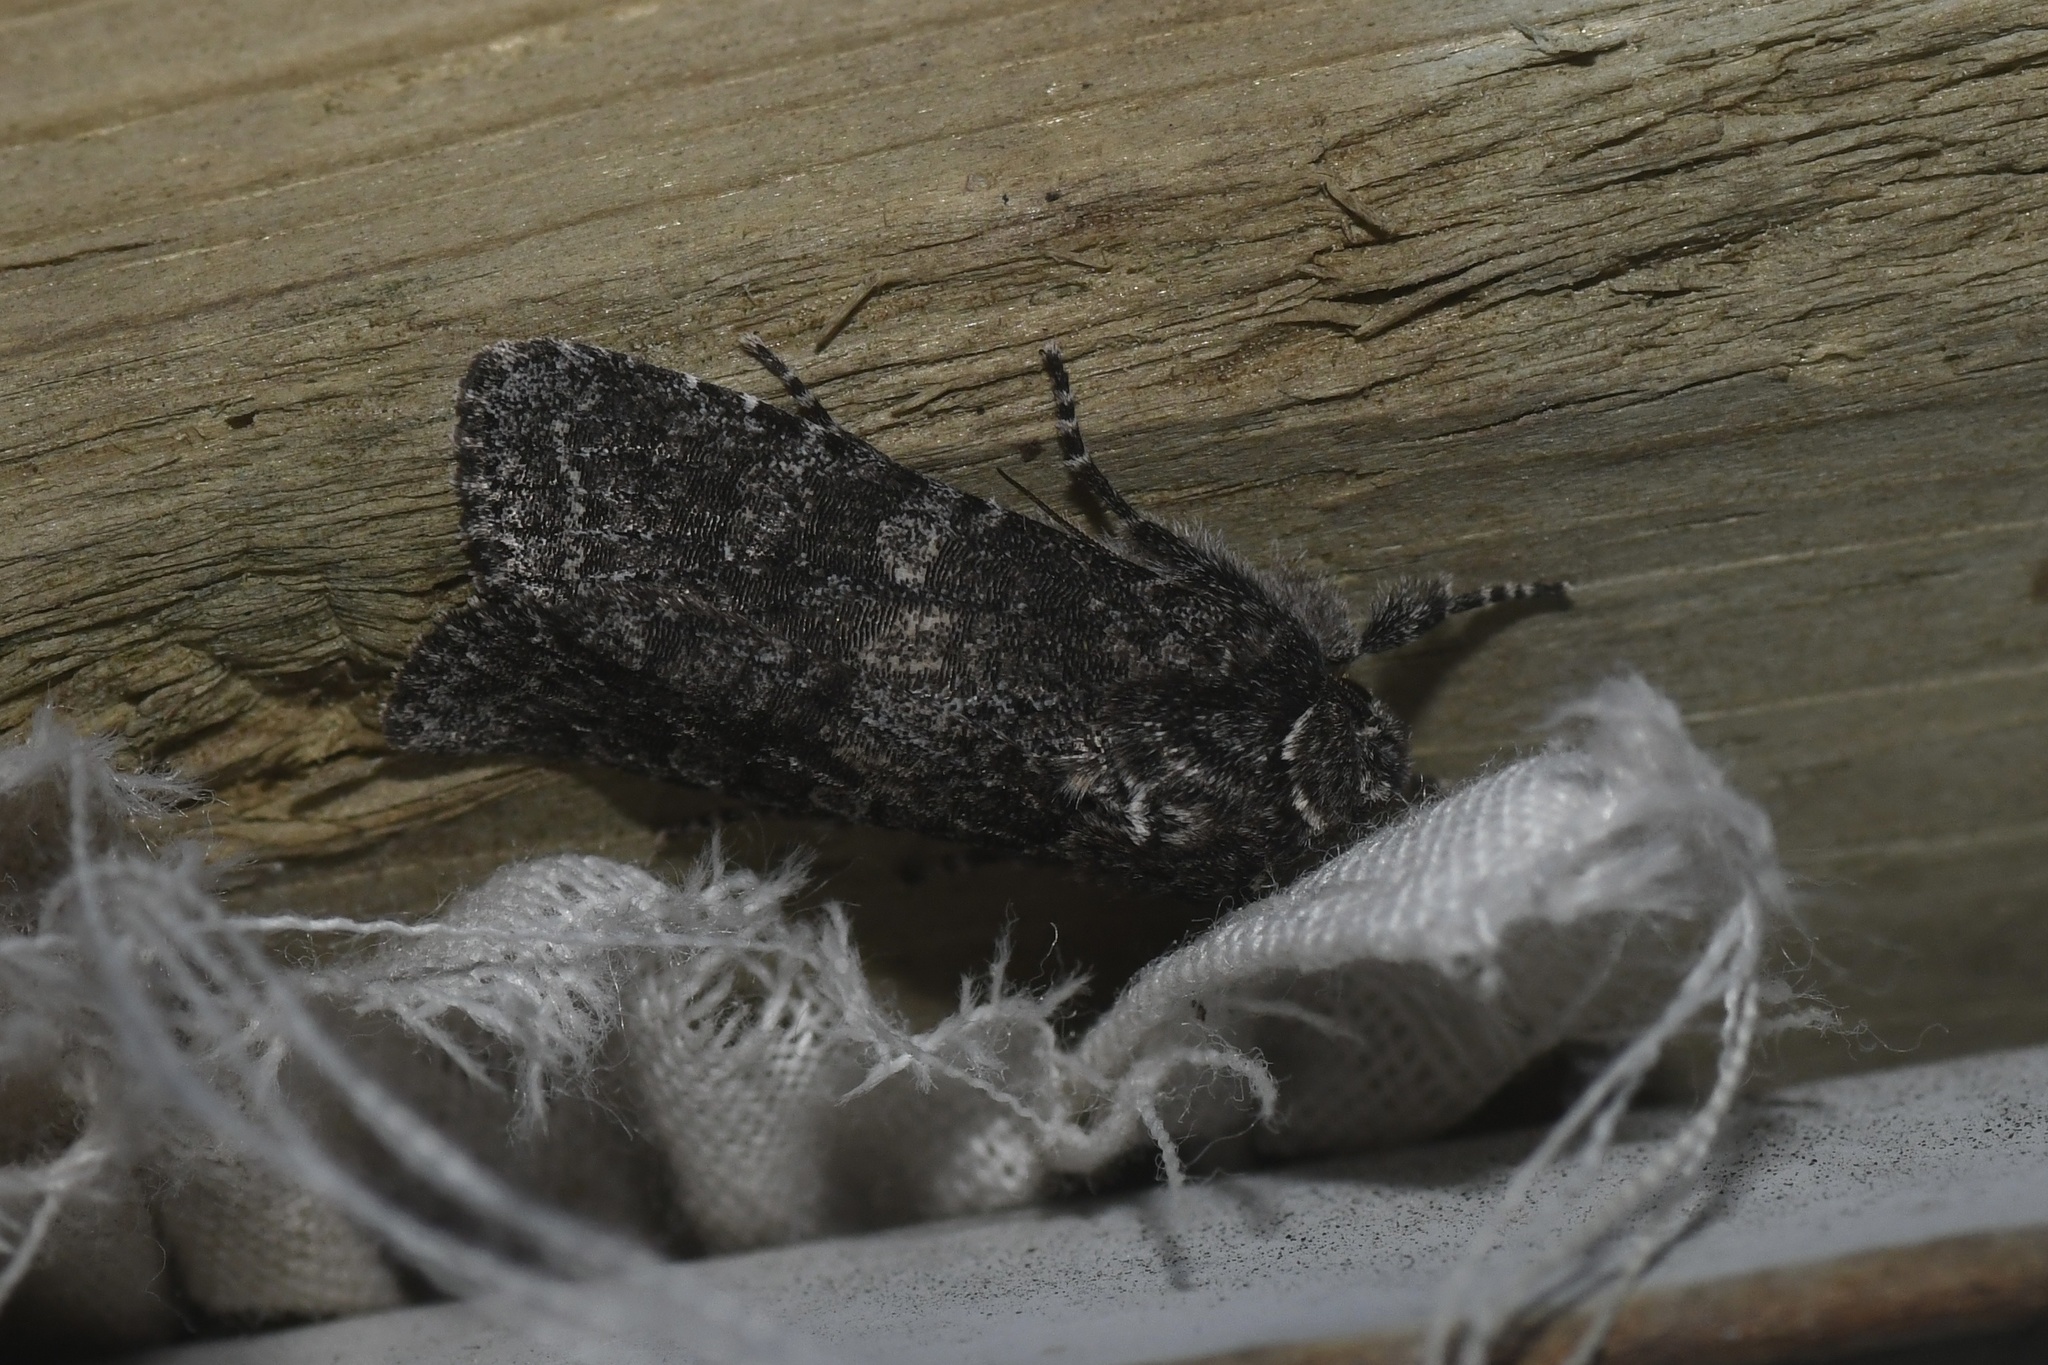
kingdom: Animalia
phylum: Arthropoda
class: Insecta
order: Lepidoptera
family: Noctuidae
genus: Egira
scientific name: Egira dolosa
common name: Lined black aspen cat.
